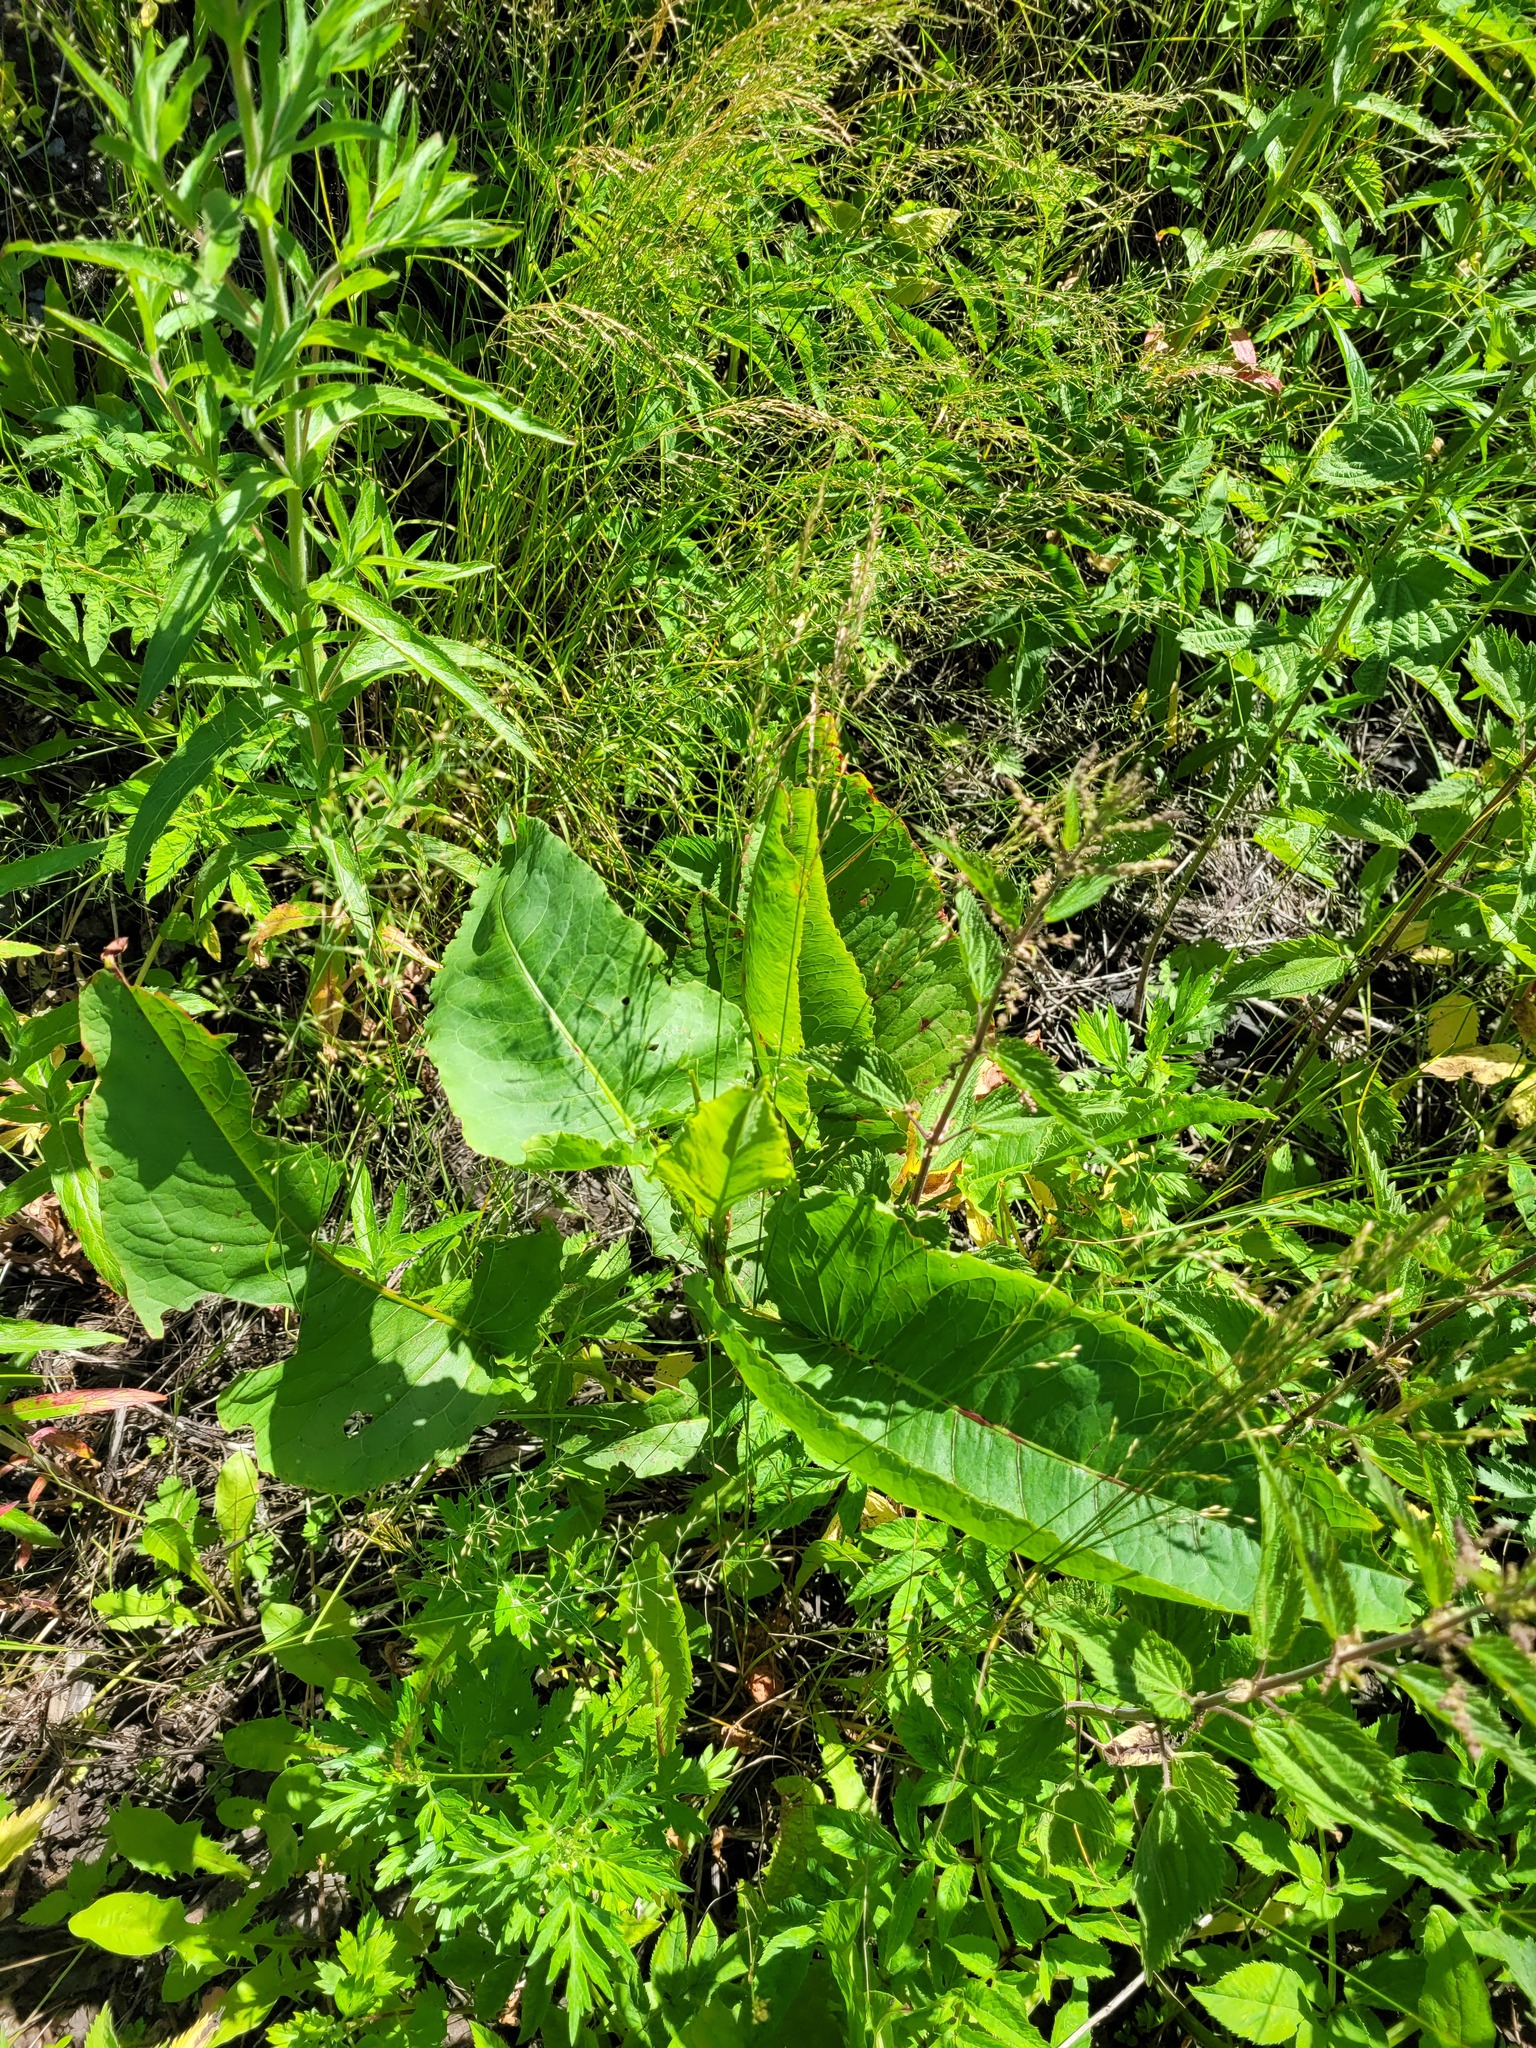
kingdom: Plantae
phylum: Tracheophyta
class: Magnoliopsida
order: Caryophyllales
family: Polygonaceae
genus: Rumex
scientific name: Rumex confertus
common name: Russian dock
